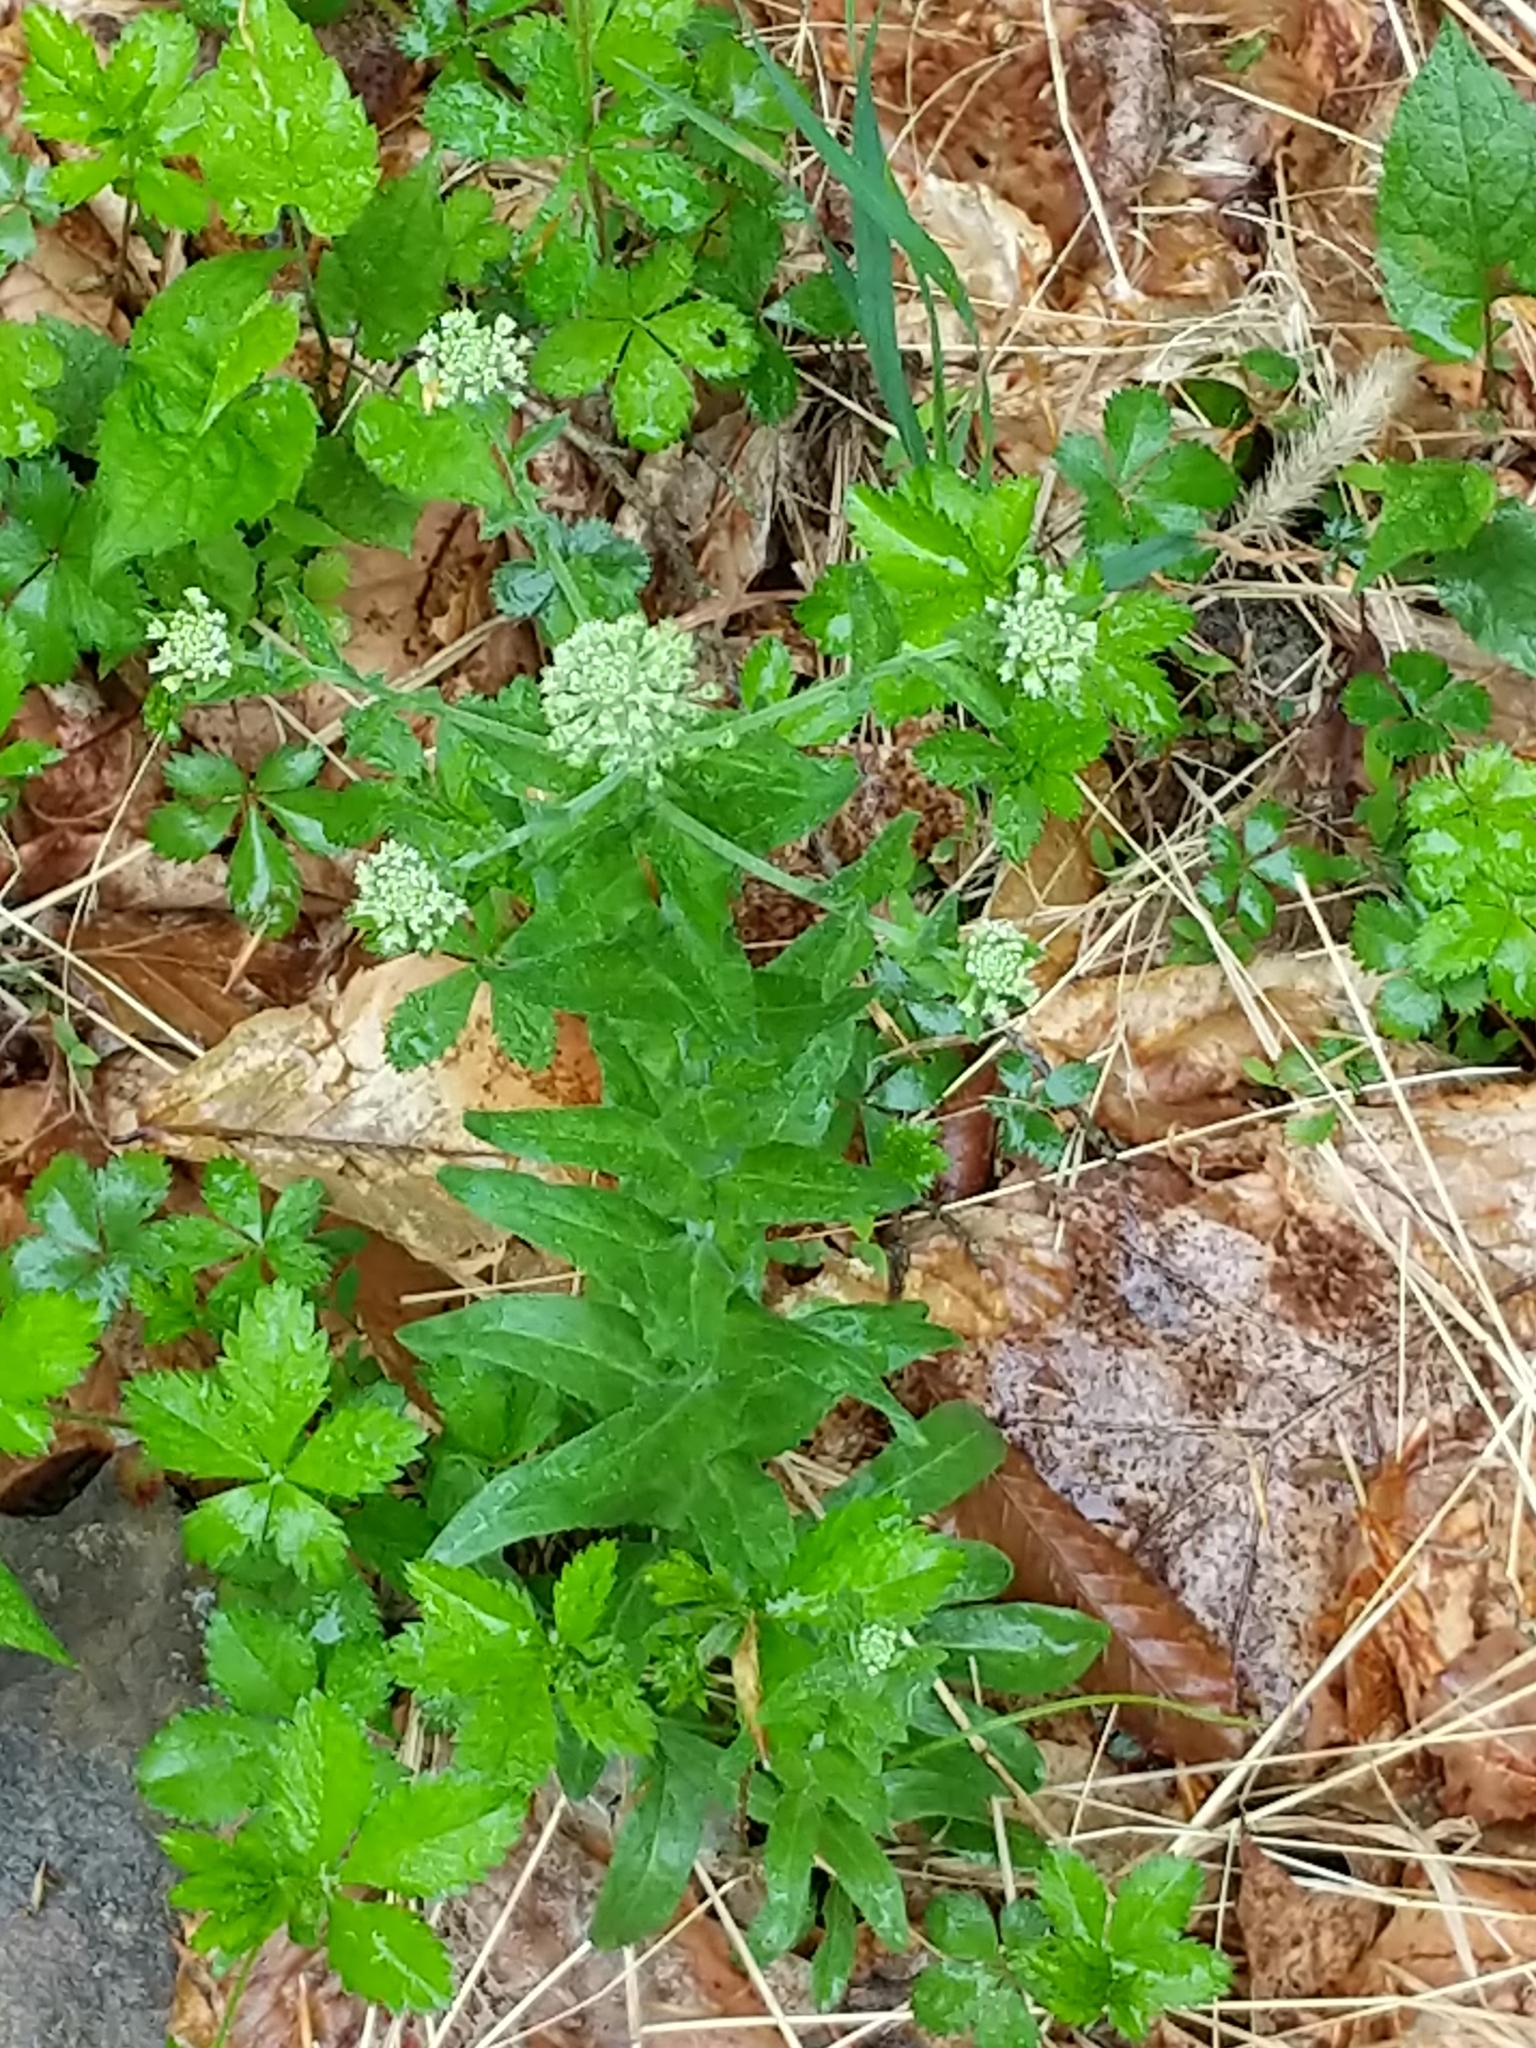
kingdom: Plantae
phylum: Tracheophyta
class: Magnoliopsida
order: Brassicales
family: Brassicaceae
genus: Lepidium
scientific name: Lepidium campestre
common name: Field pepperwort
